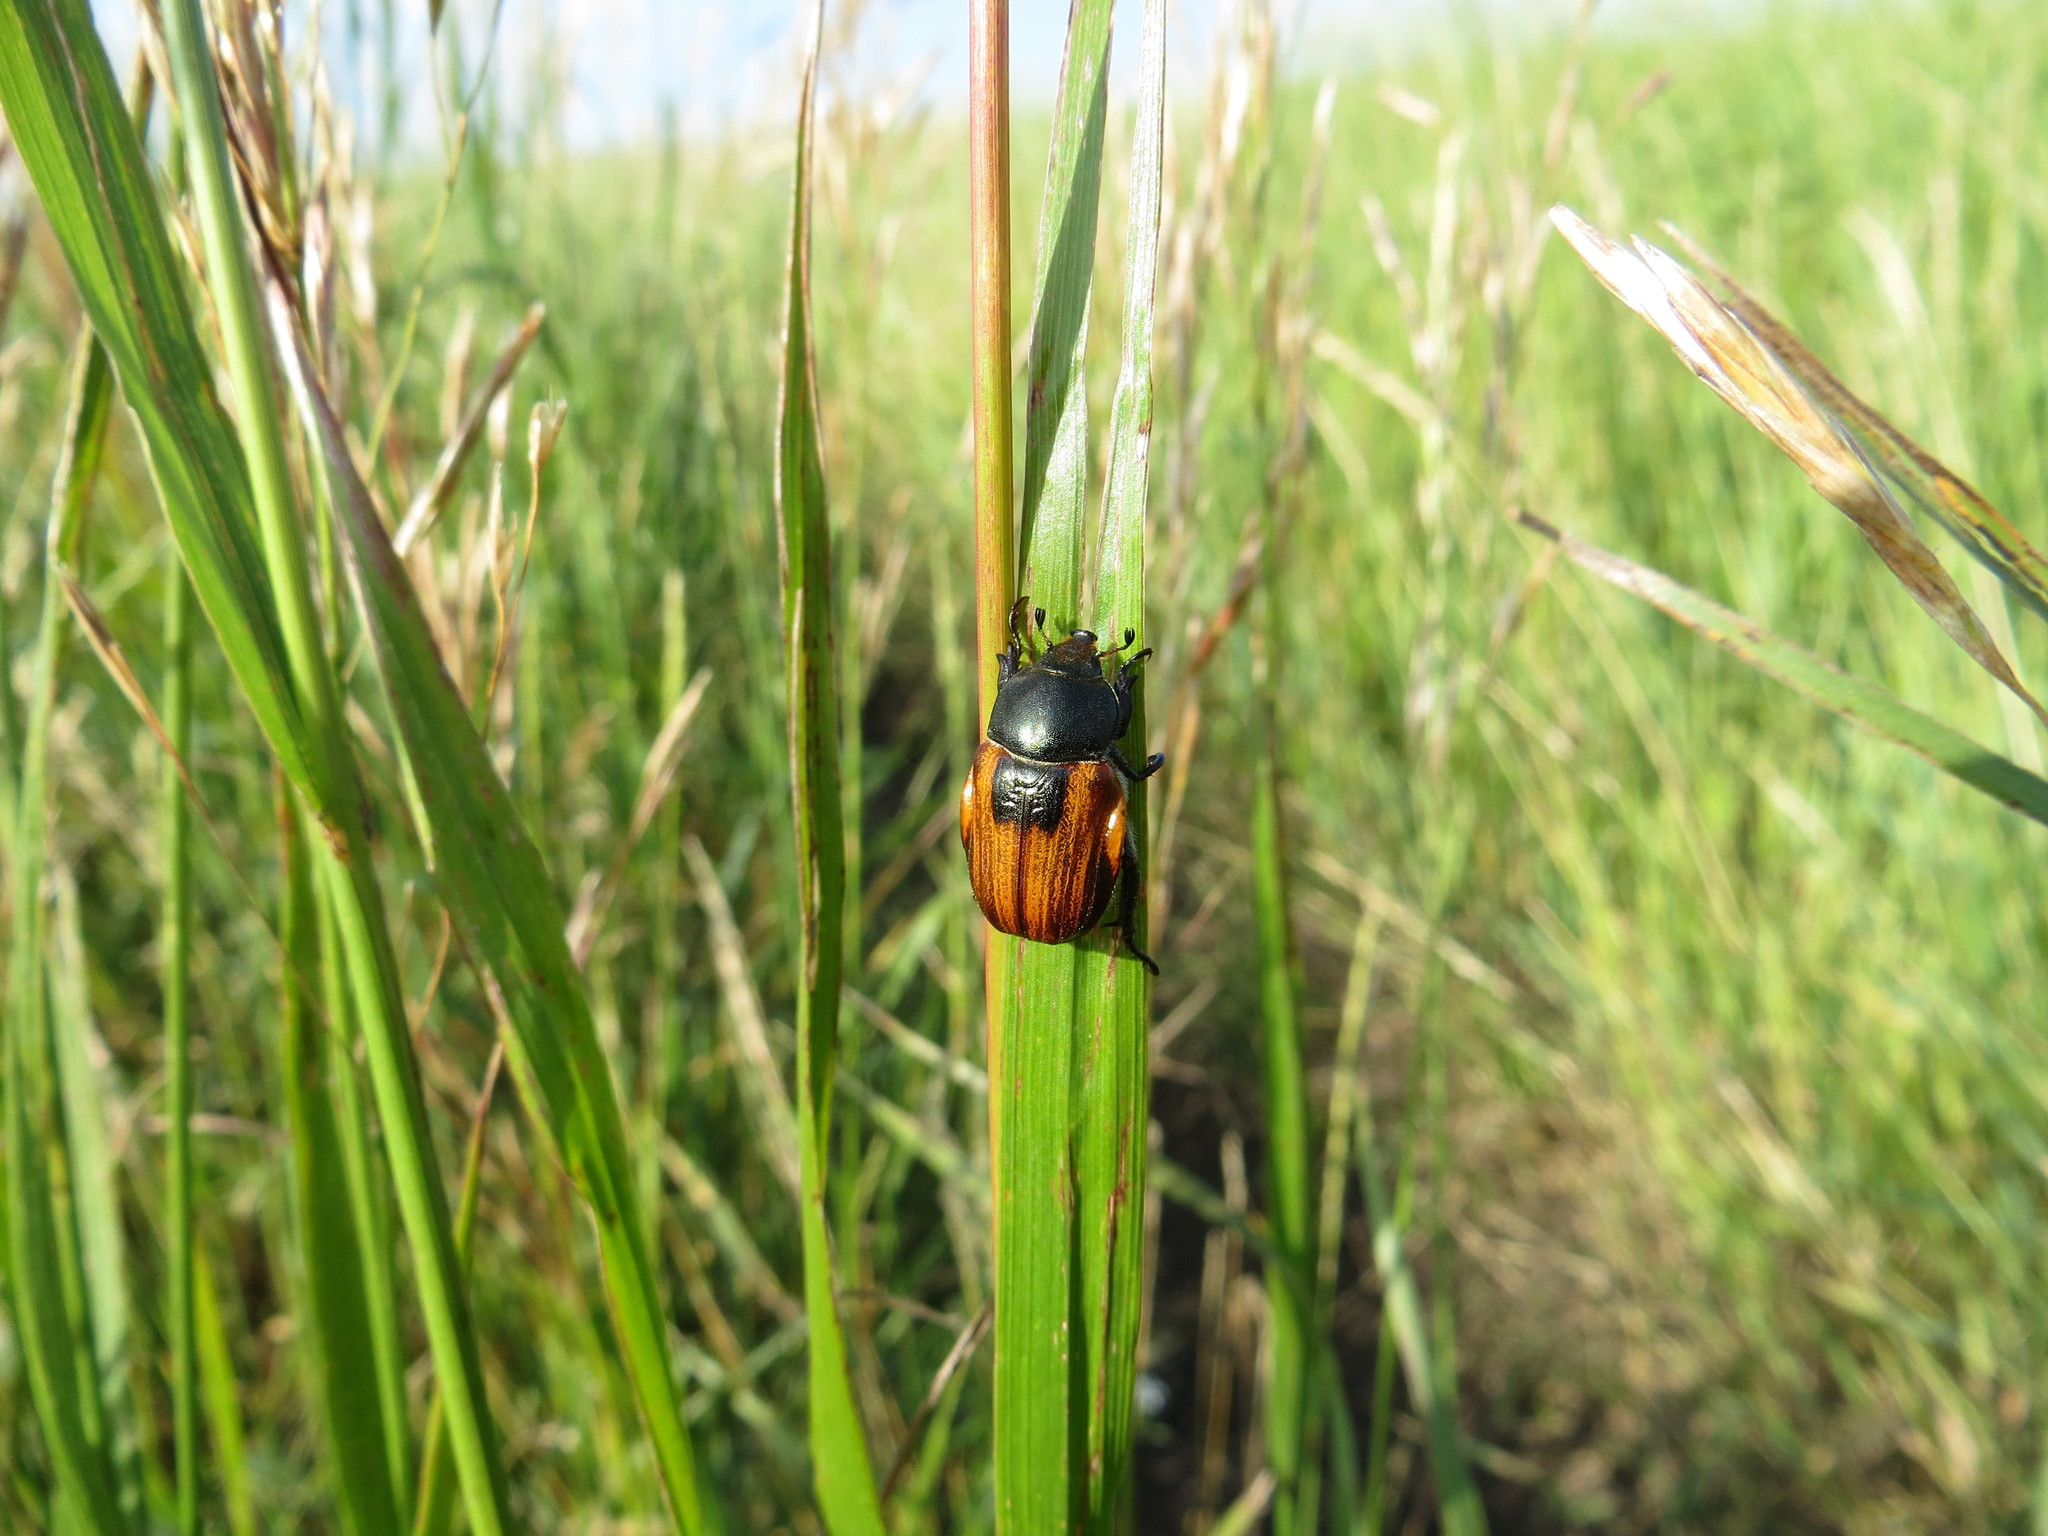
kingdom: Animalia
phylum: Arthropoda
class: Insecta
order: Coleoptera
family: Scarabaeidae
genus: Anisoplia
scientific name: Anisoplia austriaca
